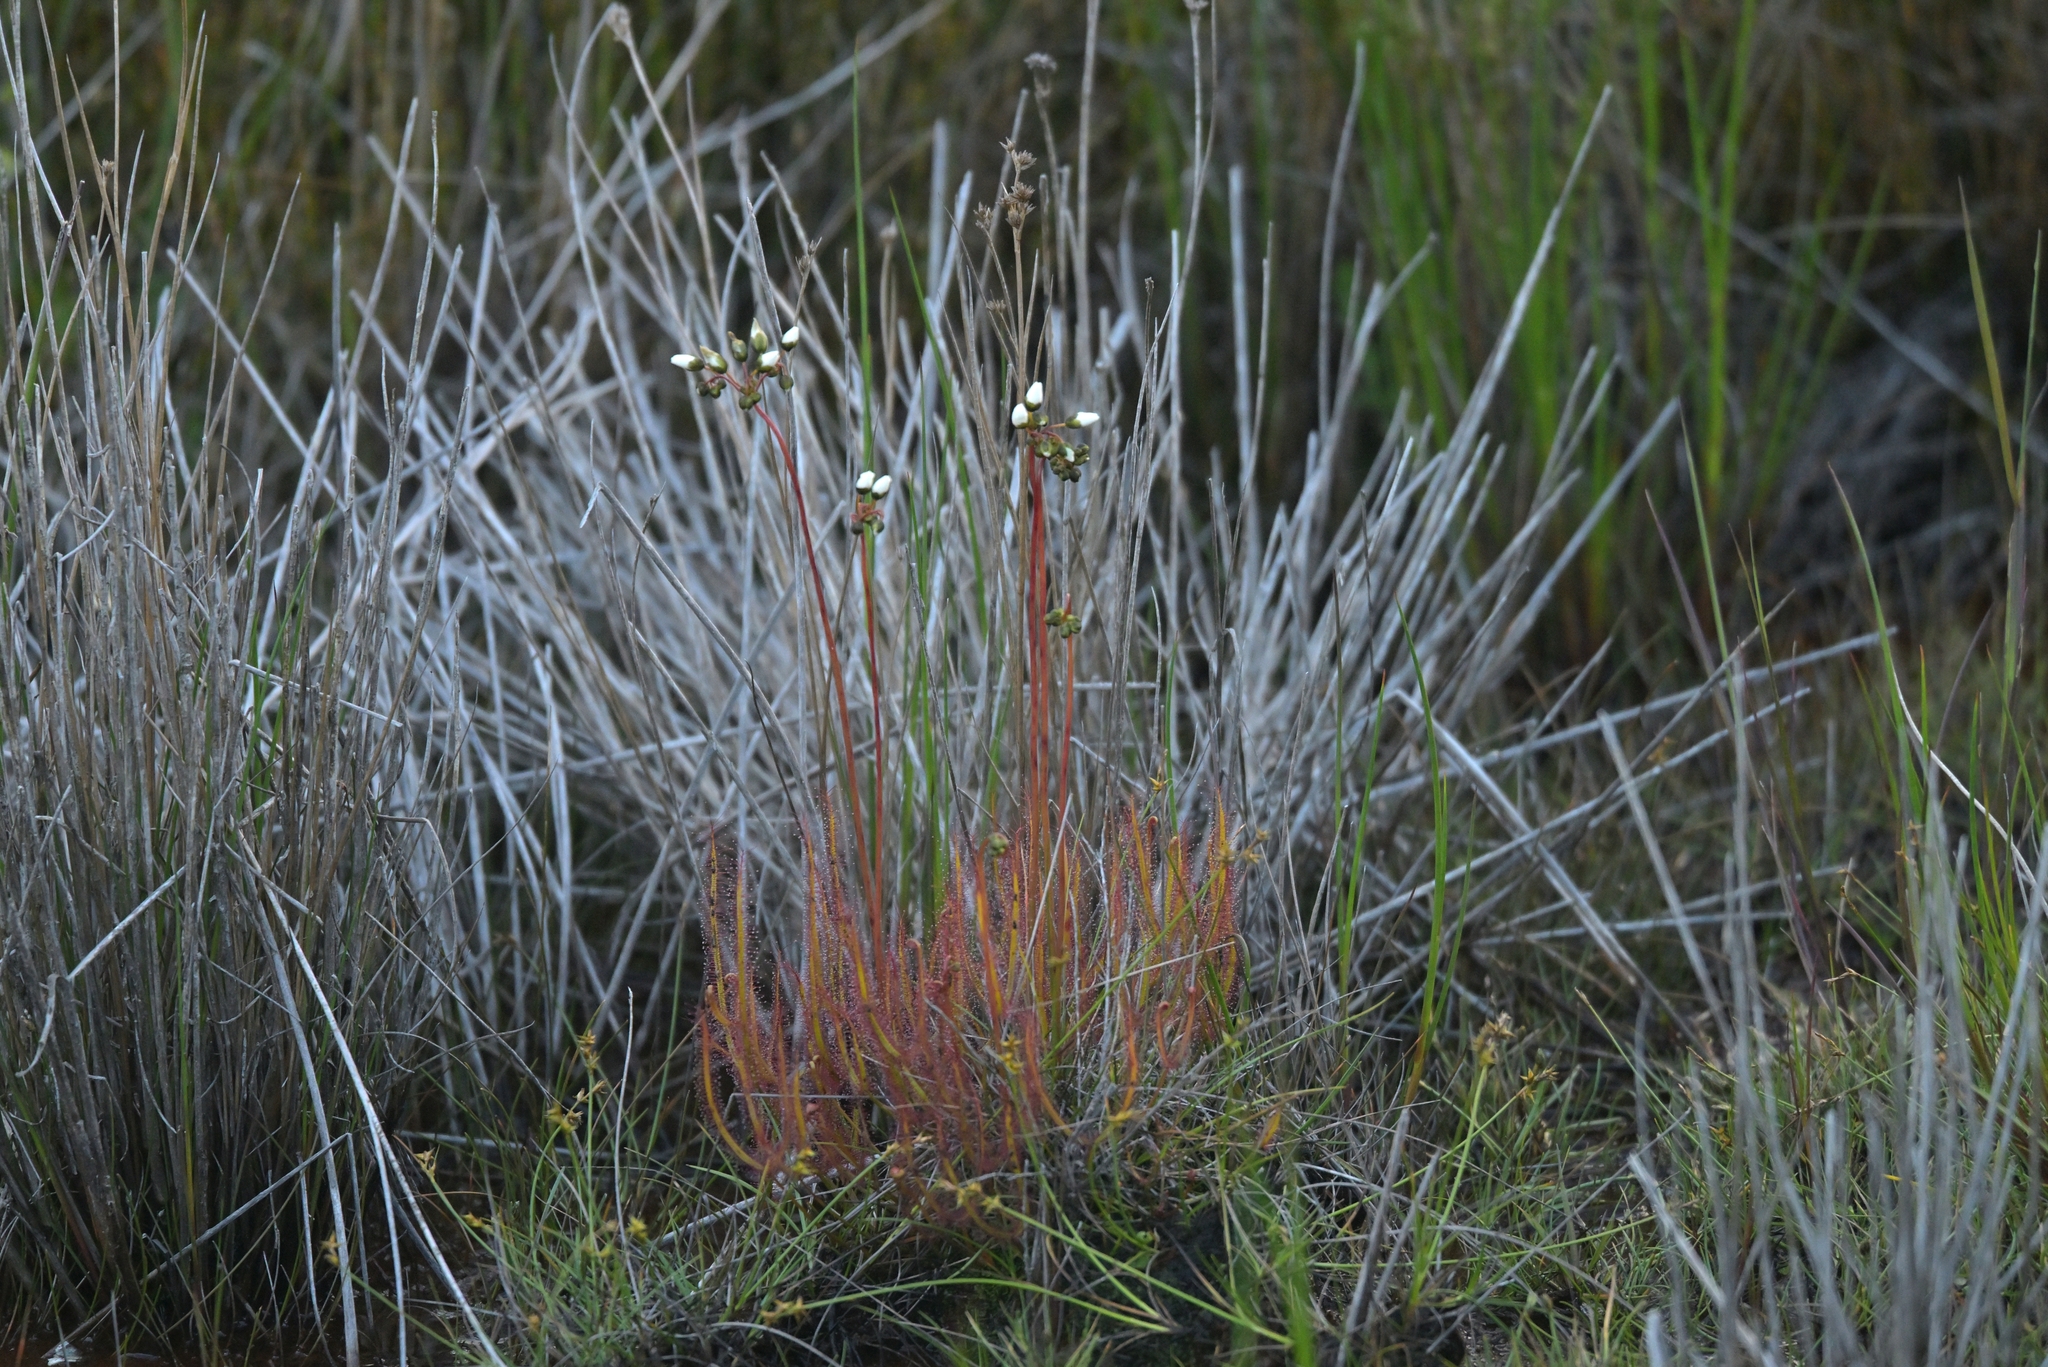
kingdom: Plantae
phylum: Tracheophyta
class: Magnoliopsida
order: Caryophyllales
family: Droseraceae
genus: Drosera
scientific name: Drosera binata
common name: Forked sundew
